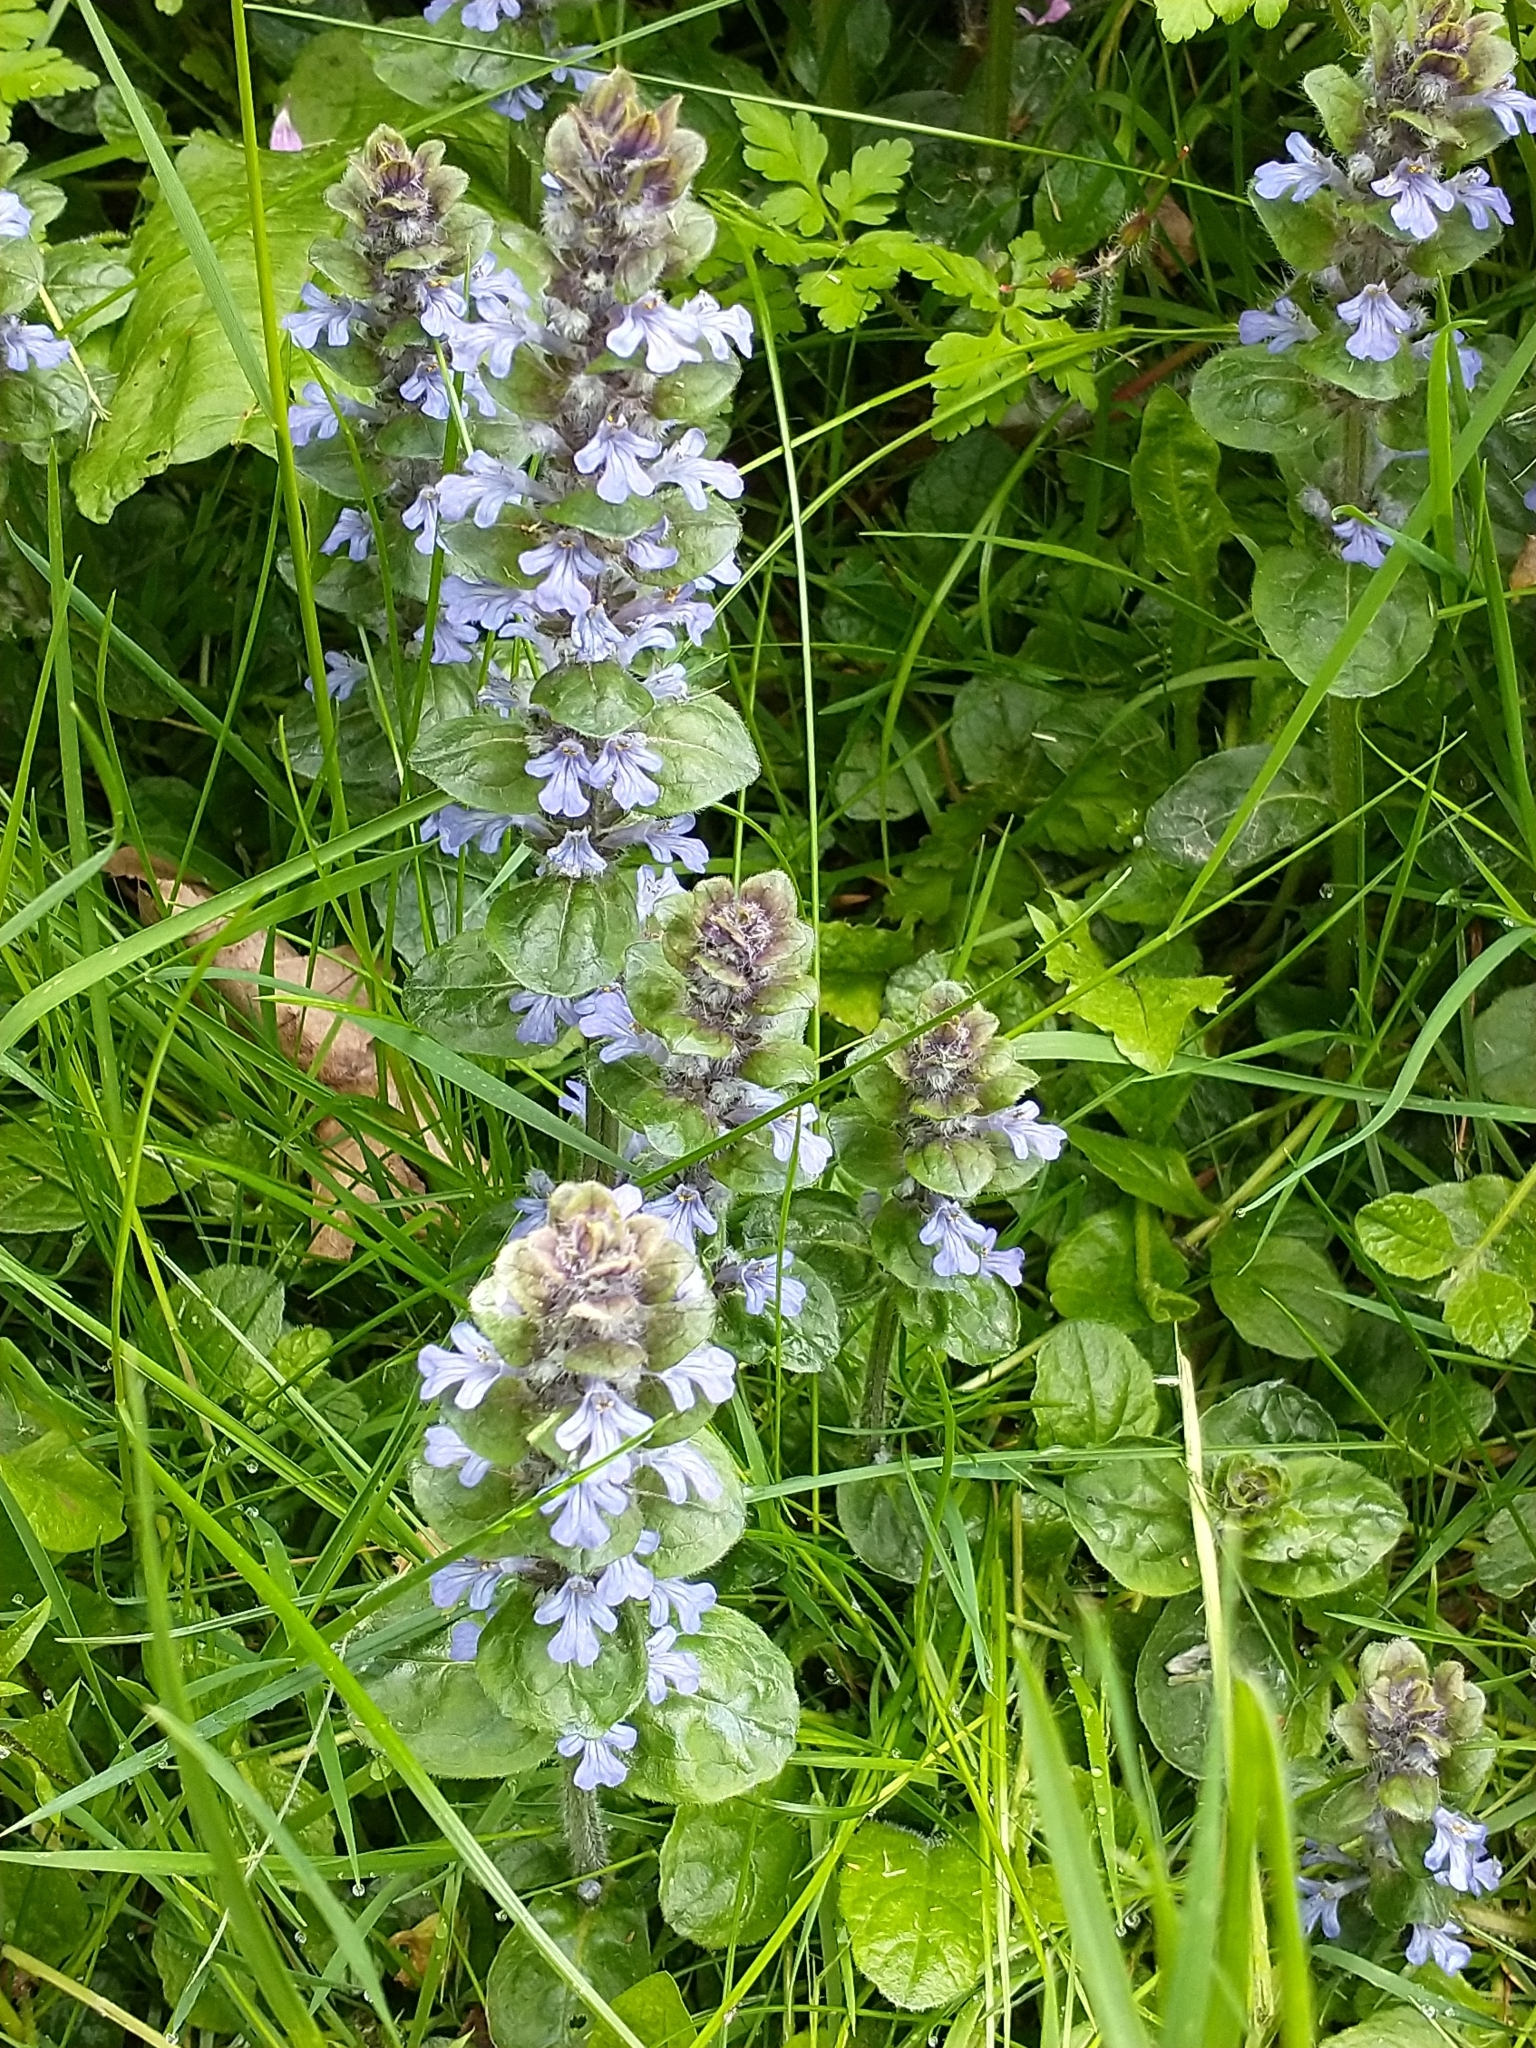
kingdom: Plantae
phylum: Tracheophyta
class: Magnoliopsida
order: Lamiales
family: Lamiaceae
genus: Ajuga
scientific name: Ajuga reptans
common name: Bugle
